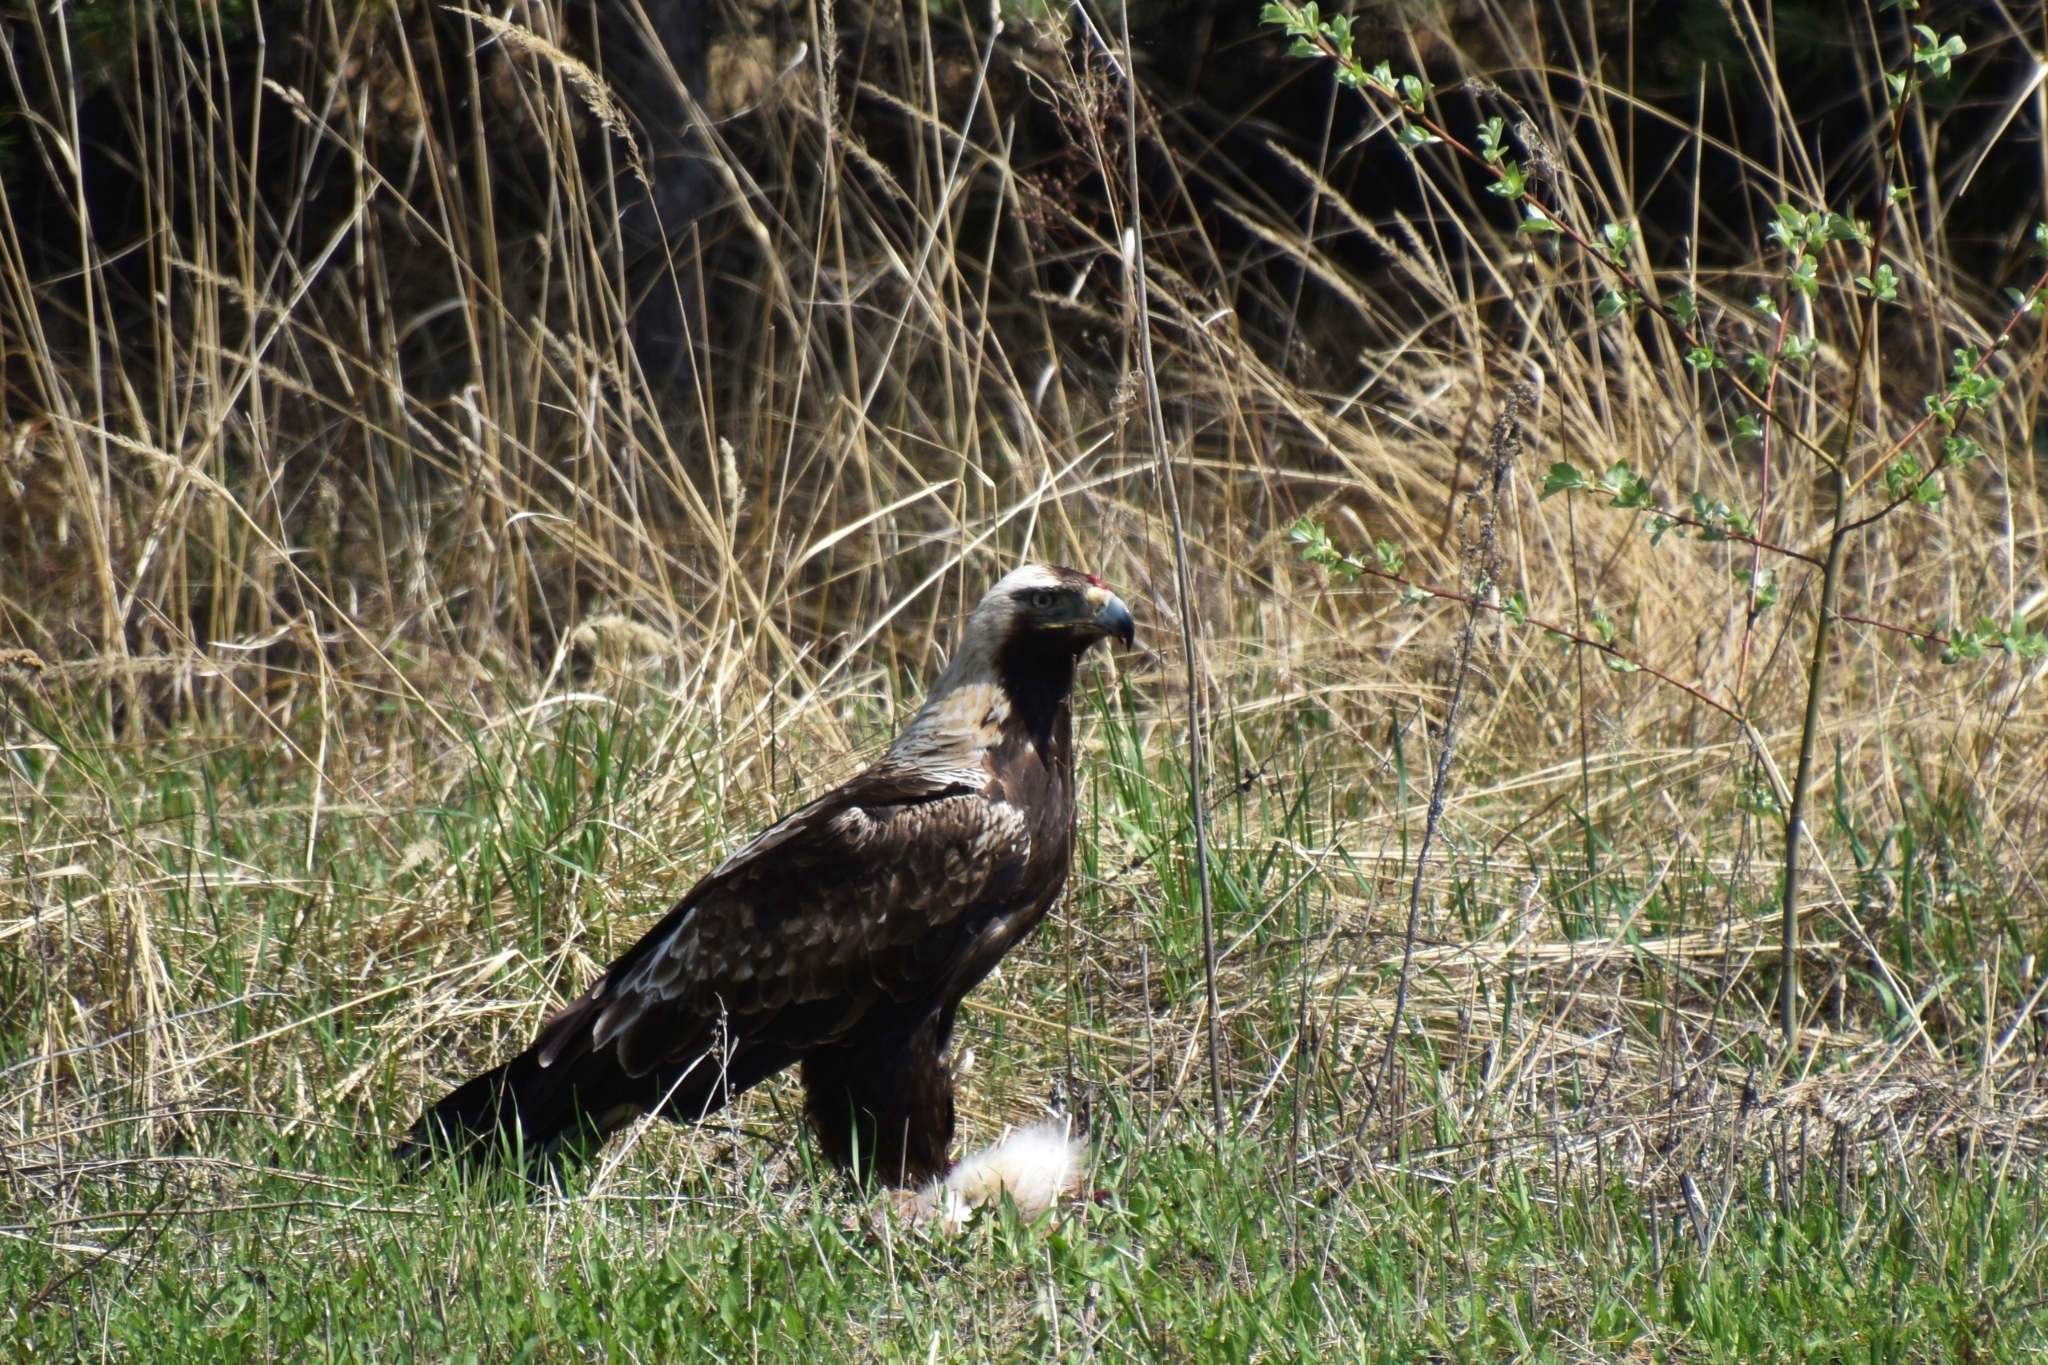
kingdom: Animalia
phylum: Chordata
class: Aves
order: Accipitriformes
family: Accipitridae
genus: Aquila
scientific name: Aquila heliaca
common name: Eastern imperial eagle
